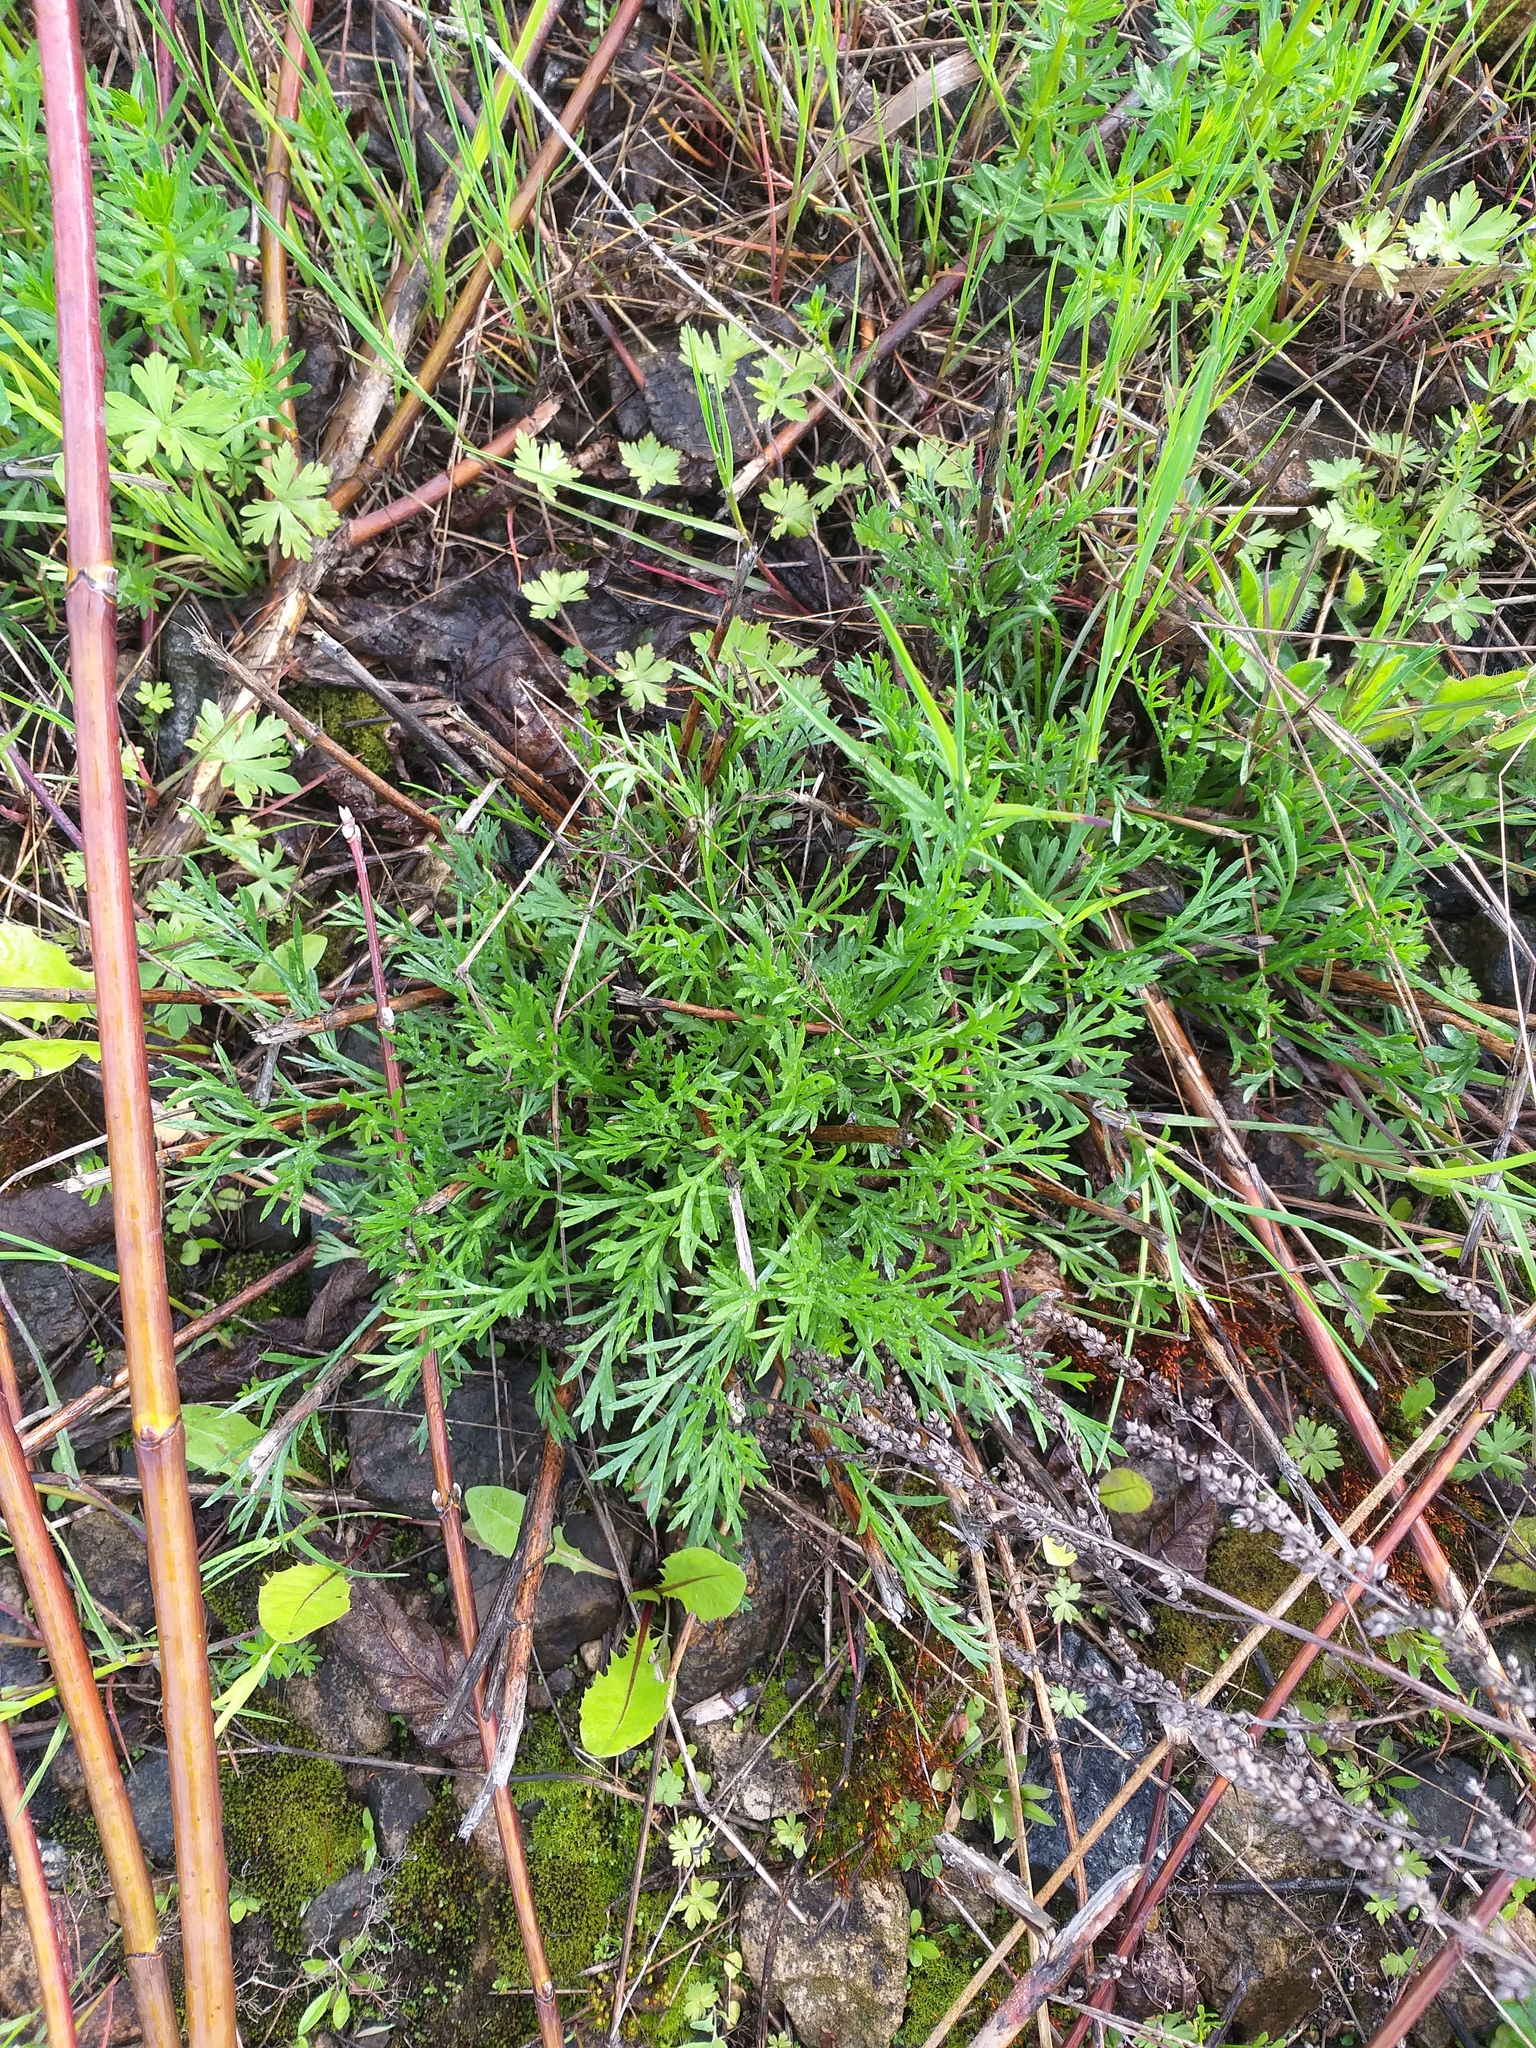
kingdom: Plantae
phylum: Tracheophyta
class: Magnoliopsida
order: Asterales
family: Asteraceae
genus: Artemisia
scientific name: Artemisia campestris
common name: Field wormwood
